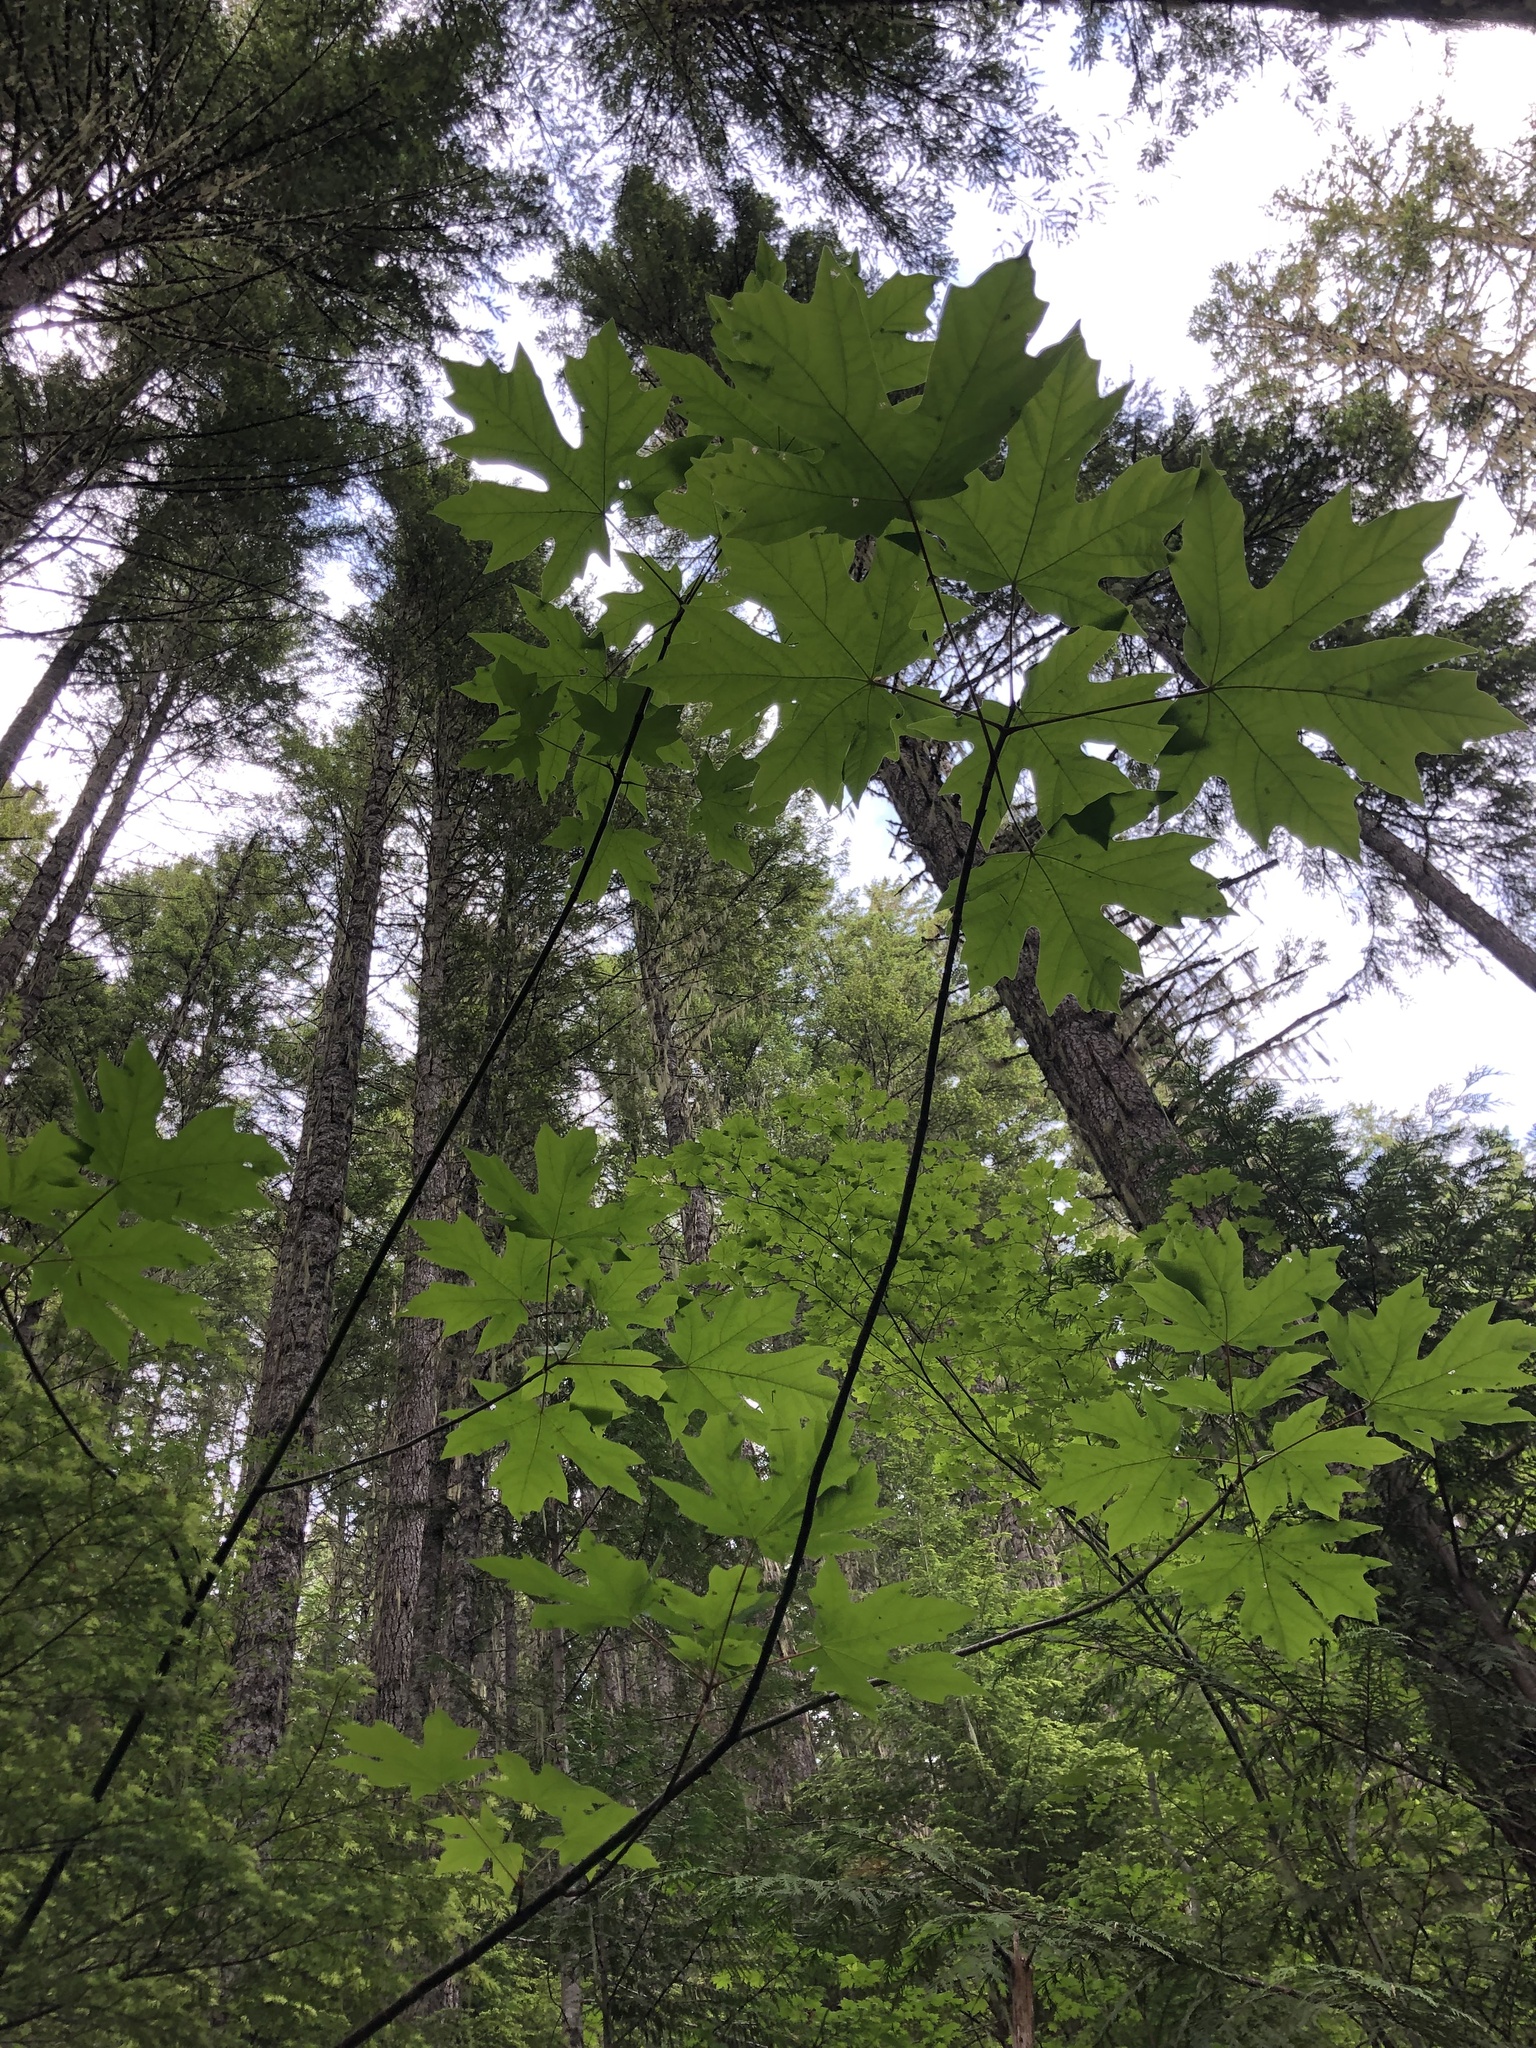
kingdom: Plantae
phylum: Tracheophyta
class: Magnoliopsida
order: Sapindales
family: Sapindaceae
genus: Acer
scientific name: Acer macrophyllum
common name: Oregon maple
